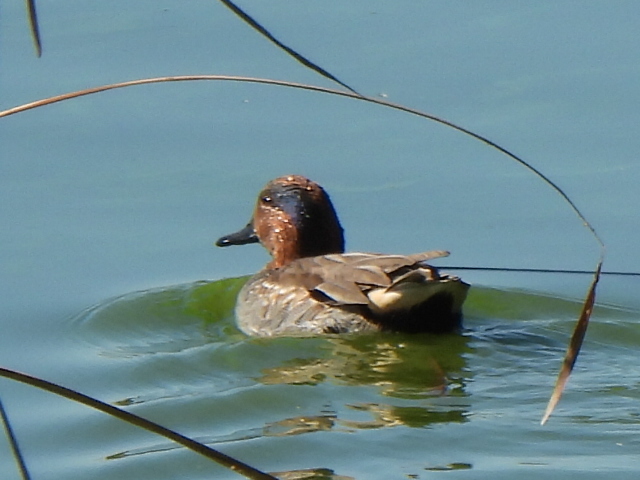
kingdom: Animalia
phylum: Chordata
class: Aves
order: Anseriformes
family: Anatidae
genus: Anas
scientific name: Anas crecca
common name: Eurasian teal
